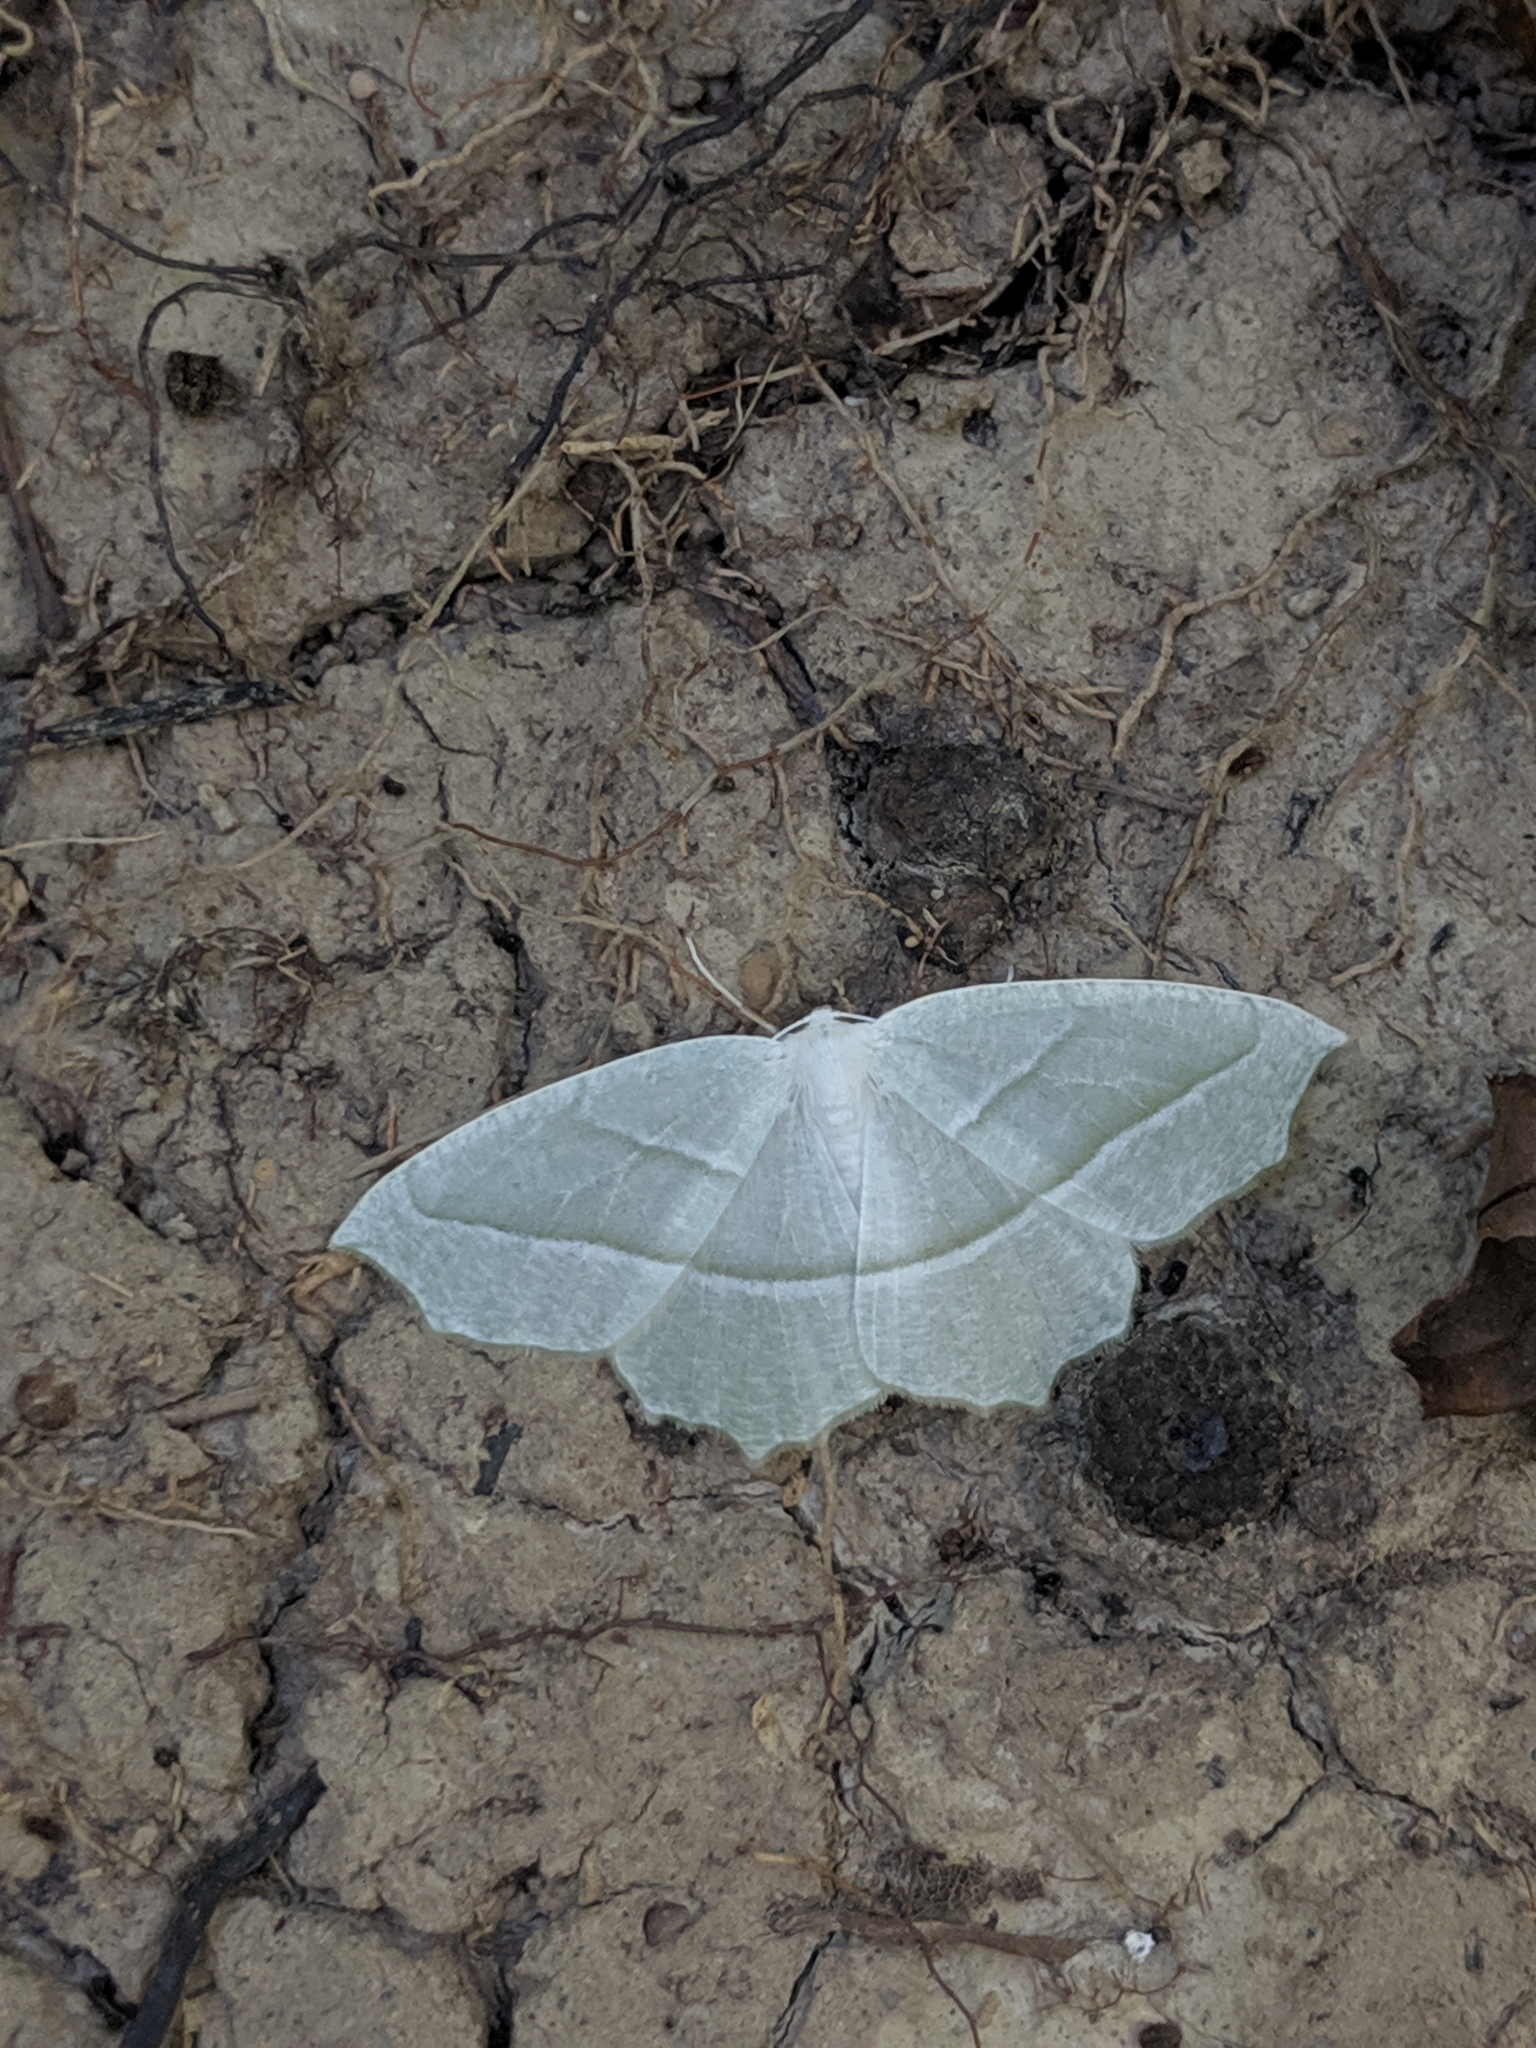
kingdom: Animalia
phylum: Arthropoda
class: Insecta
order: Lepidoptera
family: Geometridae
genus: Campaea
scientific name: Campaea perlata
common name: Fringed looper
